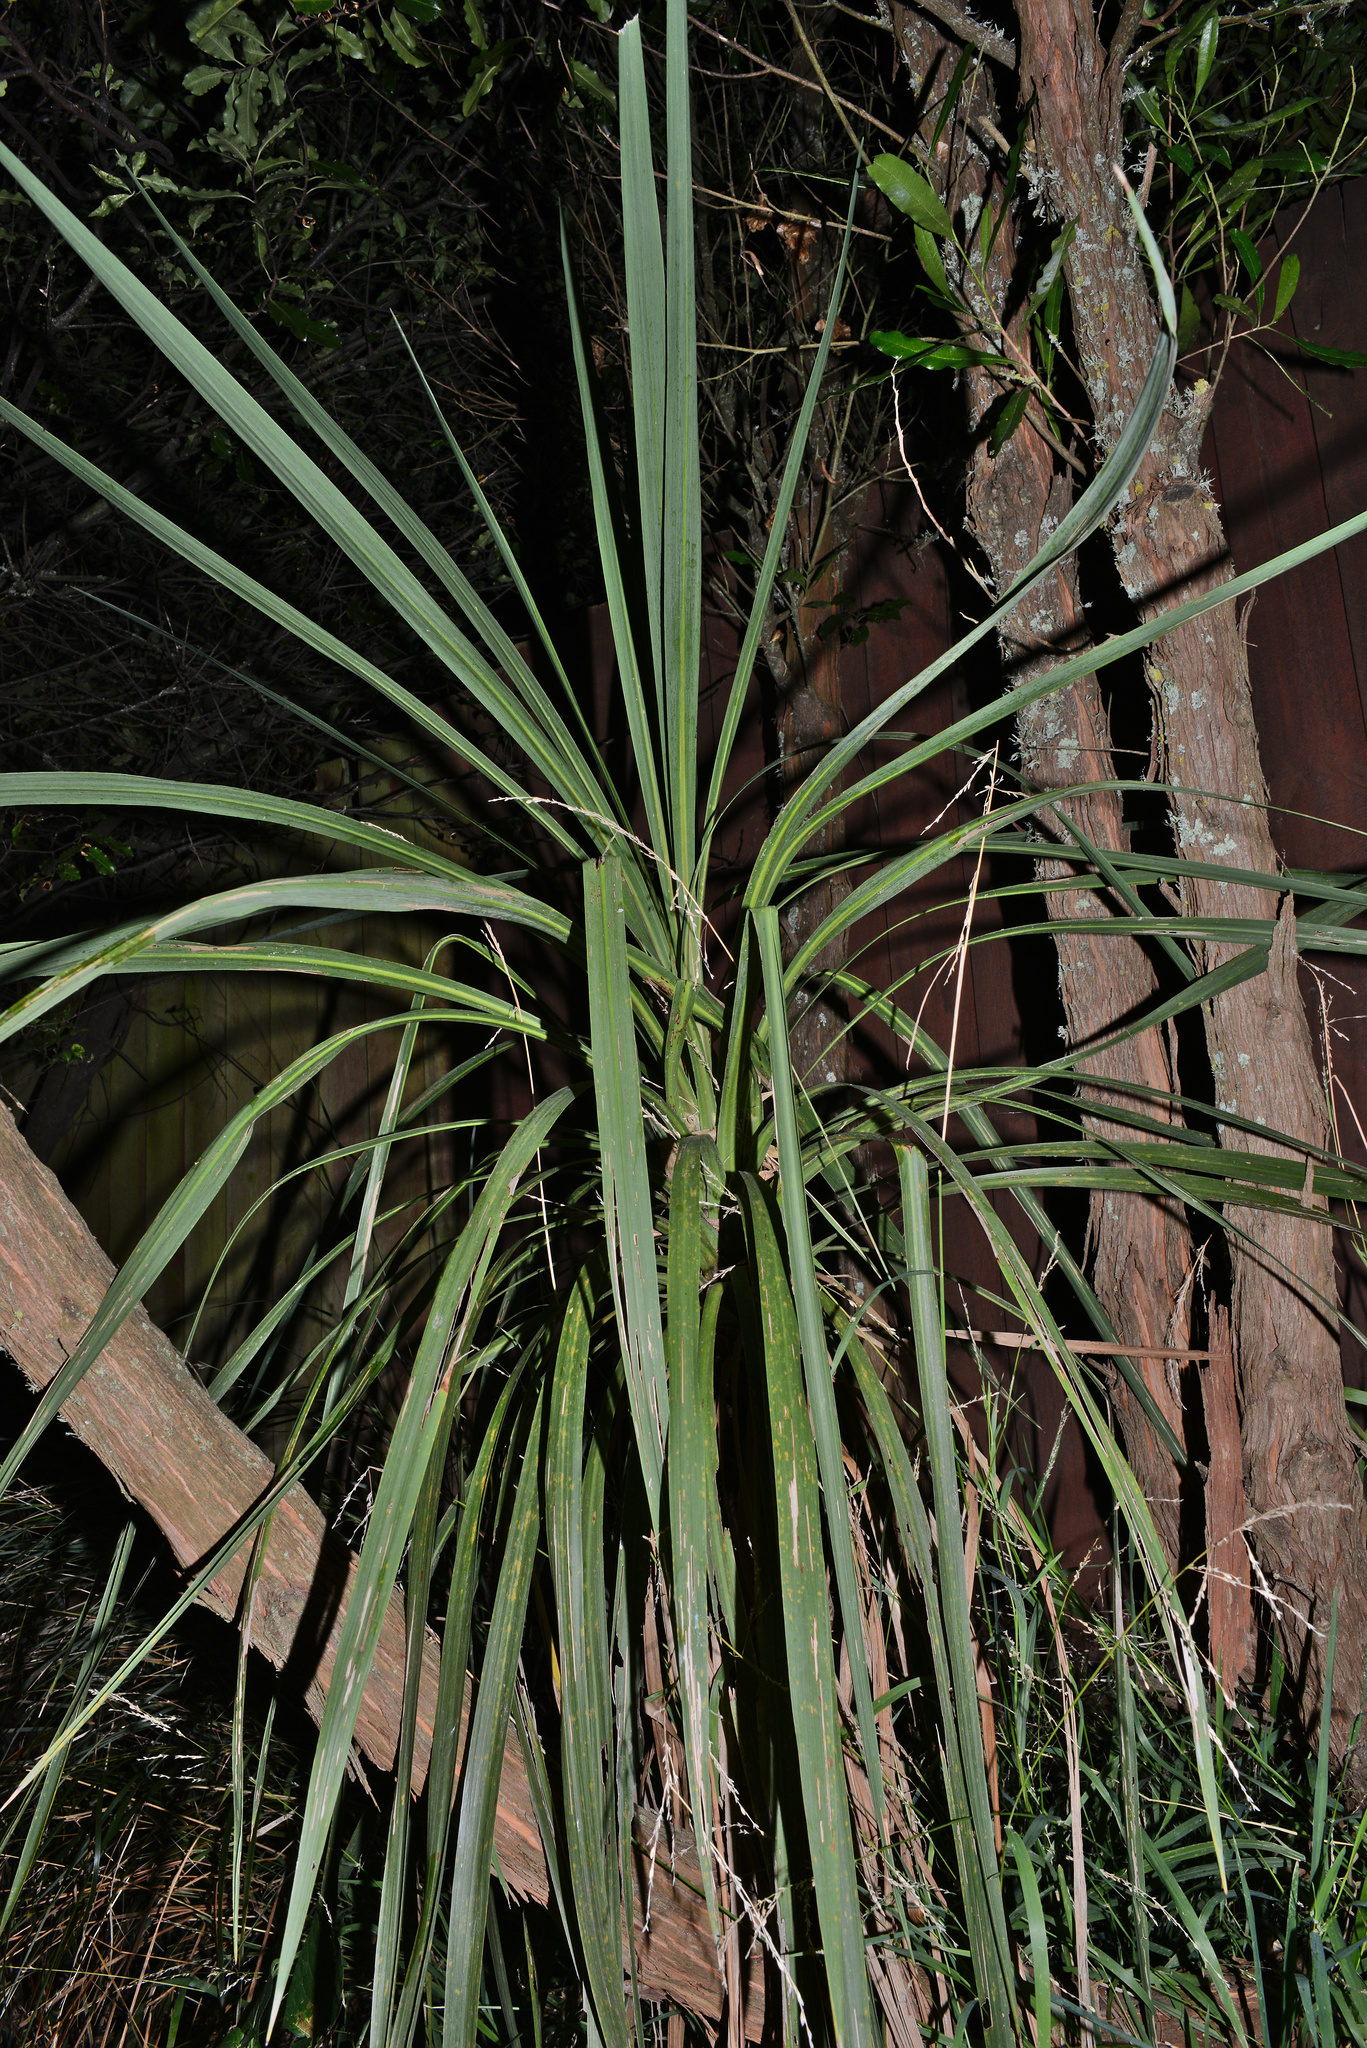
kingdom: Plantae
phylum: Tracheophyta
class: Liliopsida
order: Asparagales
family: Asparagaceae
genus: Cordyline
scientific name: Cordyline australis
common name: Cabbage-palm
